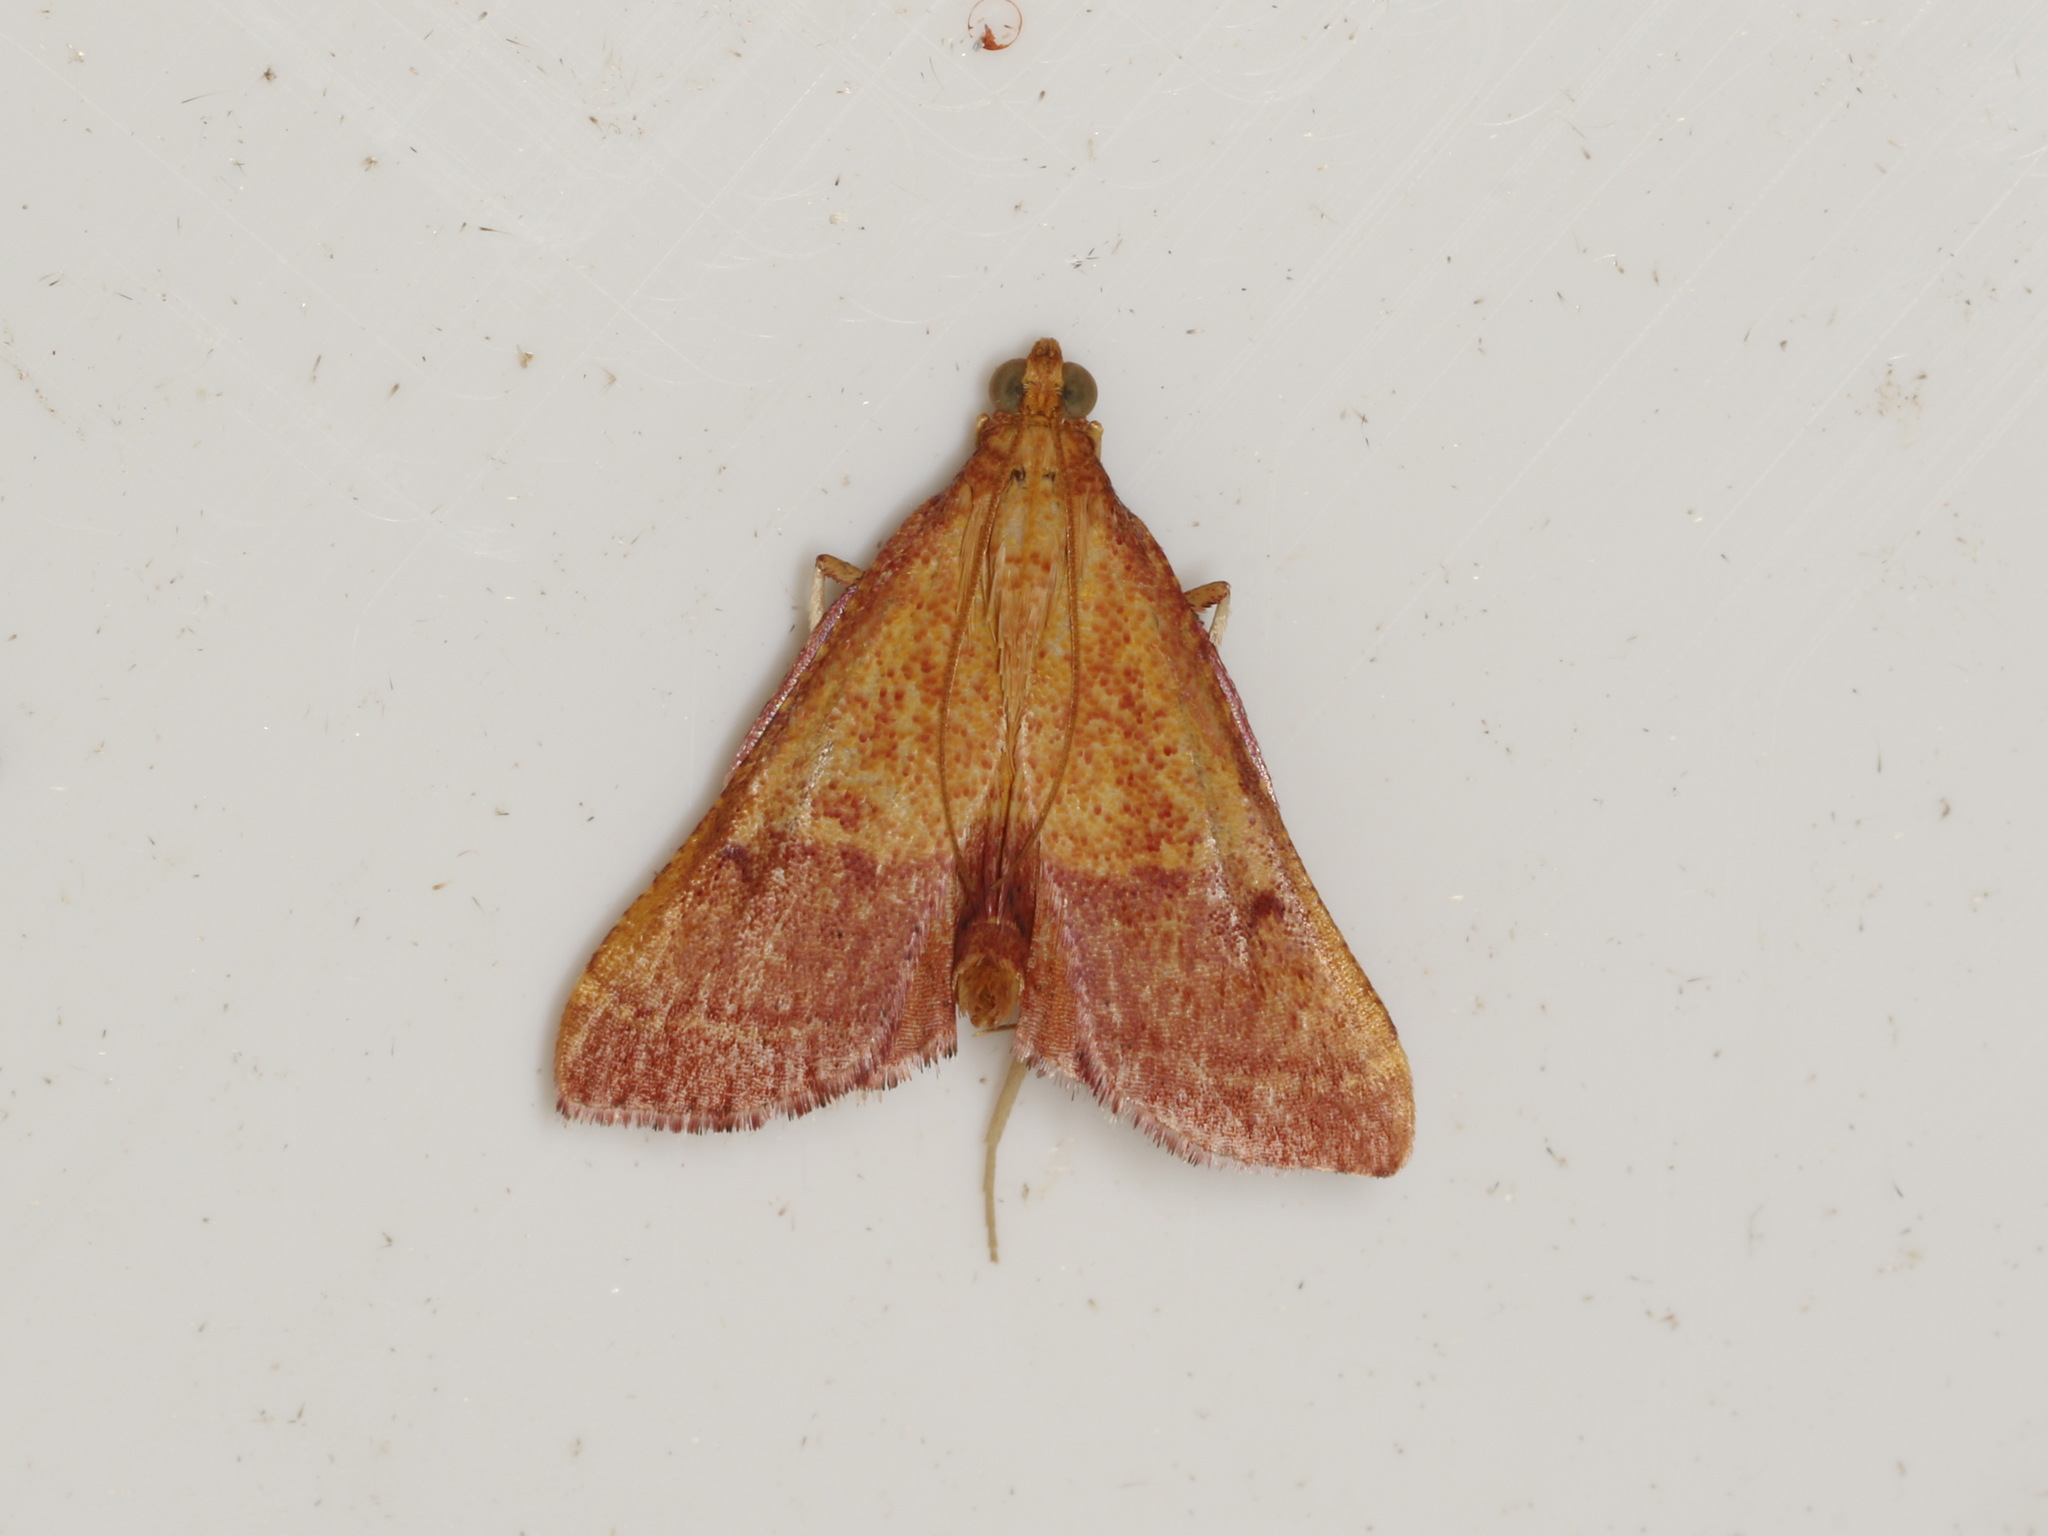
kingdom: Animalia
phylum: Arthropoda
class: Insecta
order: Lepidoptera
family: Pyralidae
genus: Endotricha
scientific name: Endotricha pyrosalis
